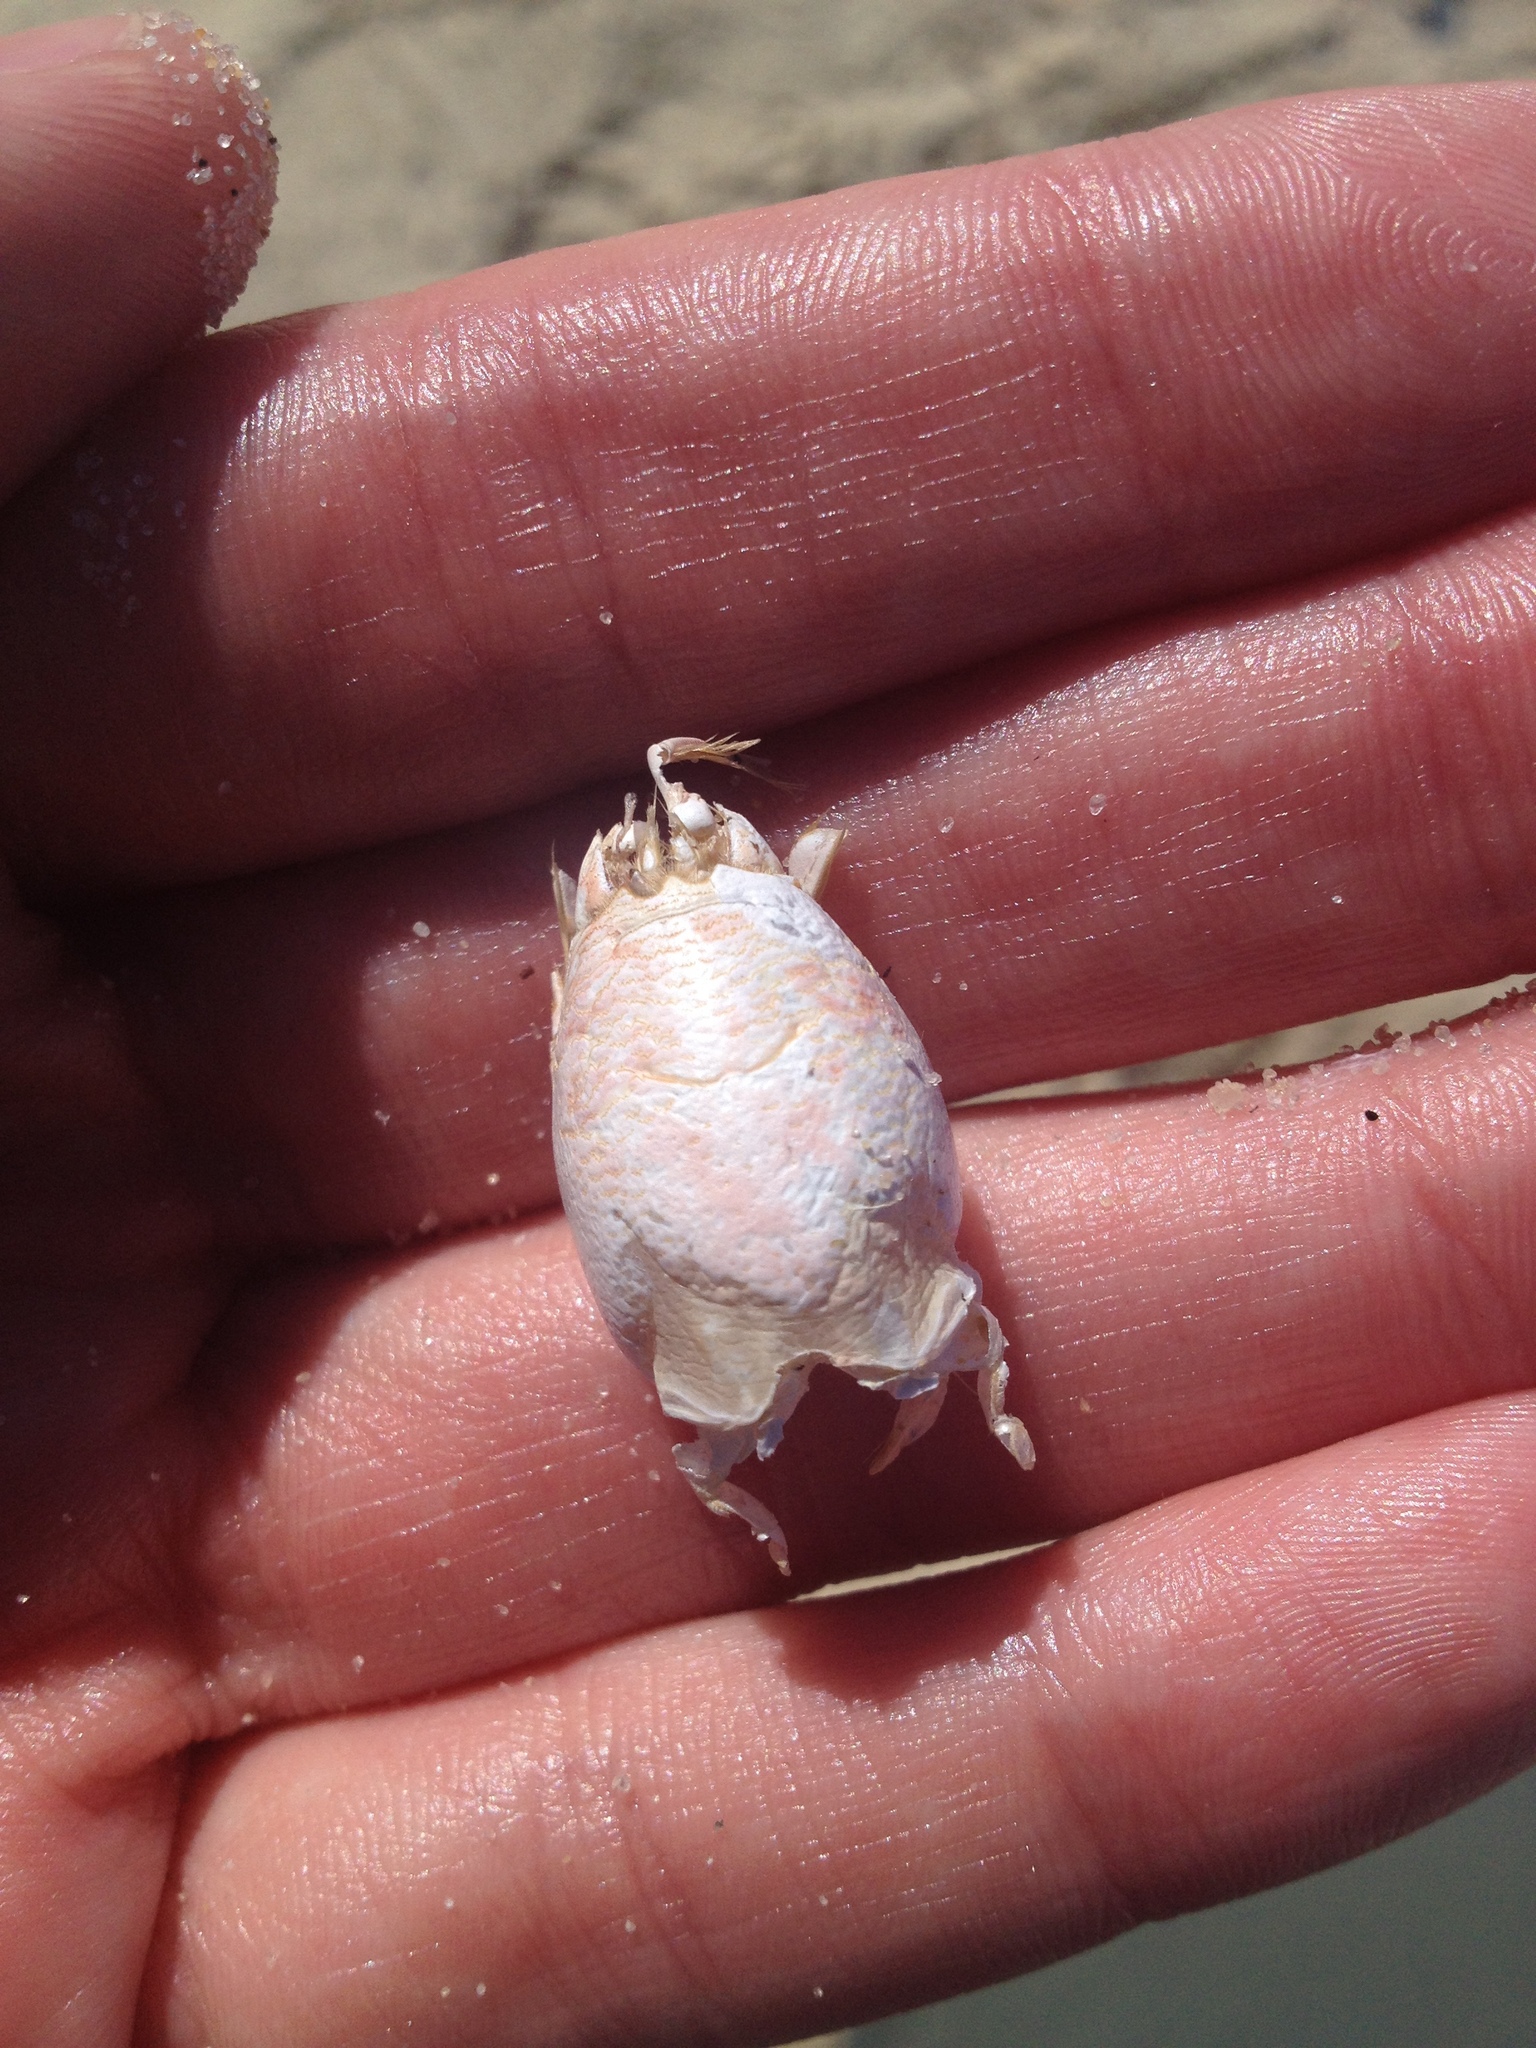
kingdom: Animalia
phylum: Arthropoda
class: Malacostraca
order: Decapoda
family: Hippidae
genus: Emerita
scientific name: Emerita talpoida
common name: Atlantic sand crab
